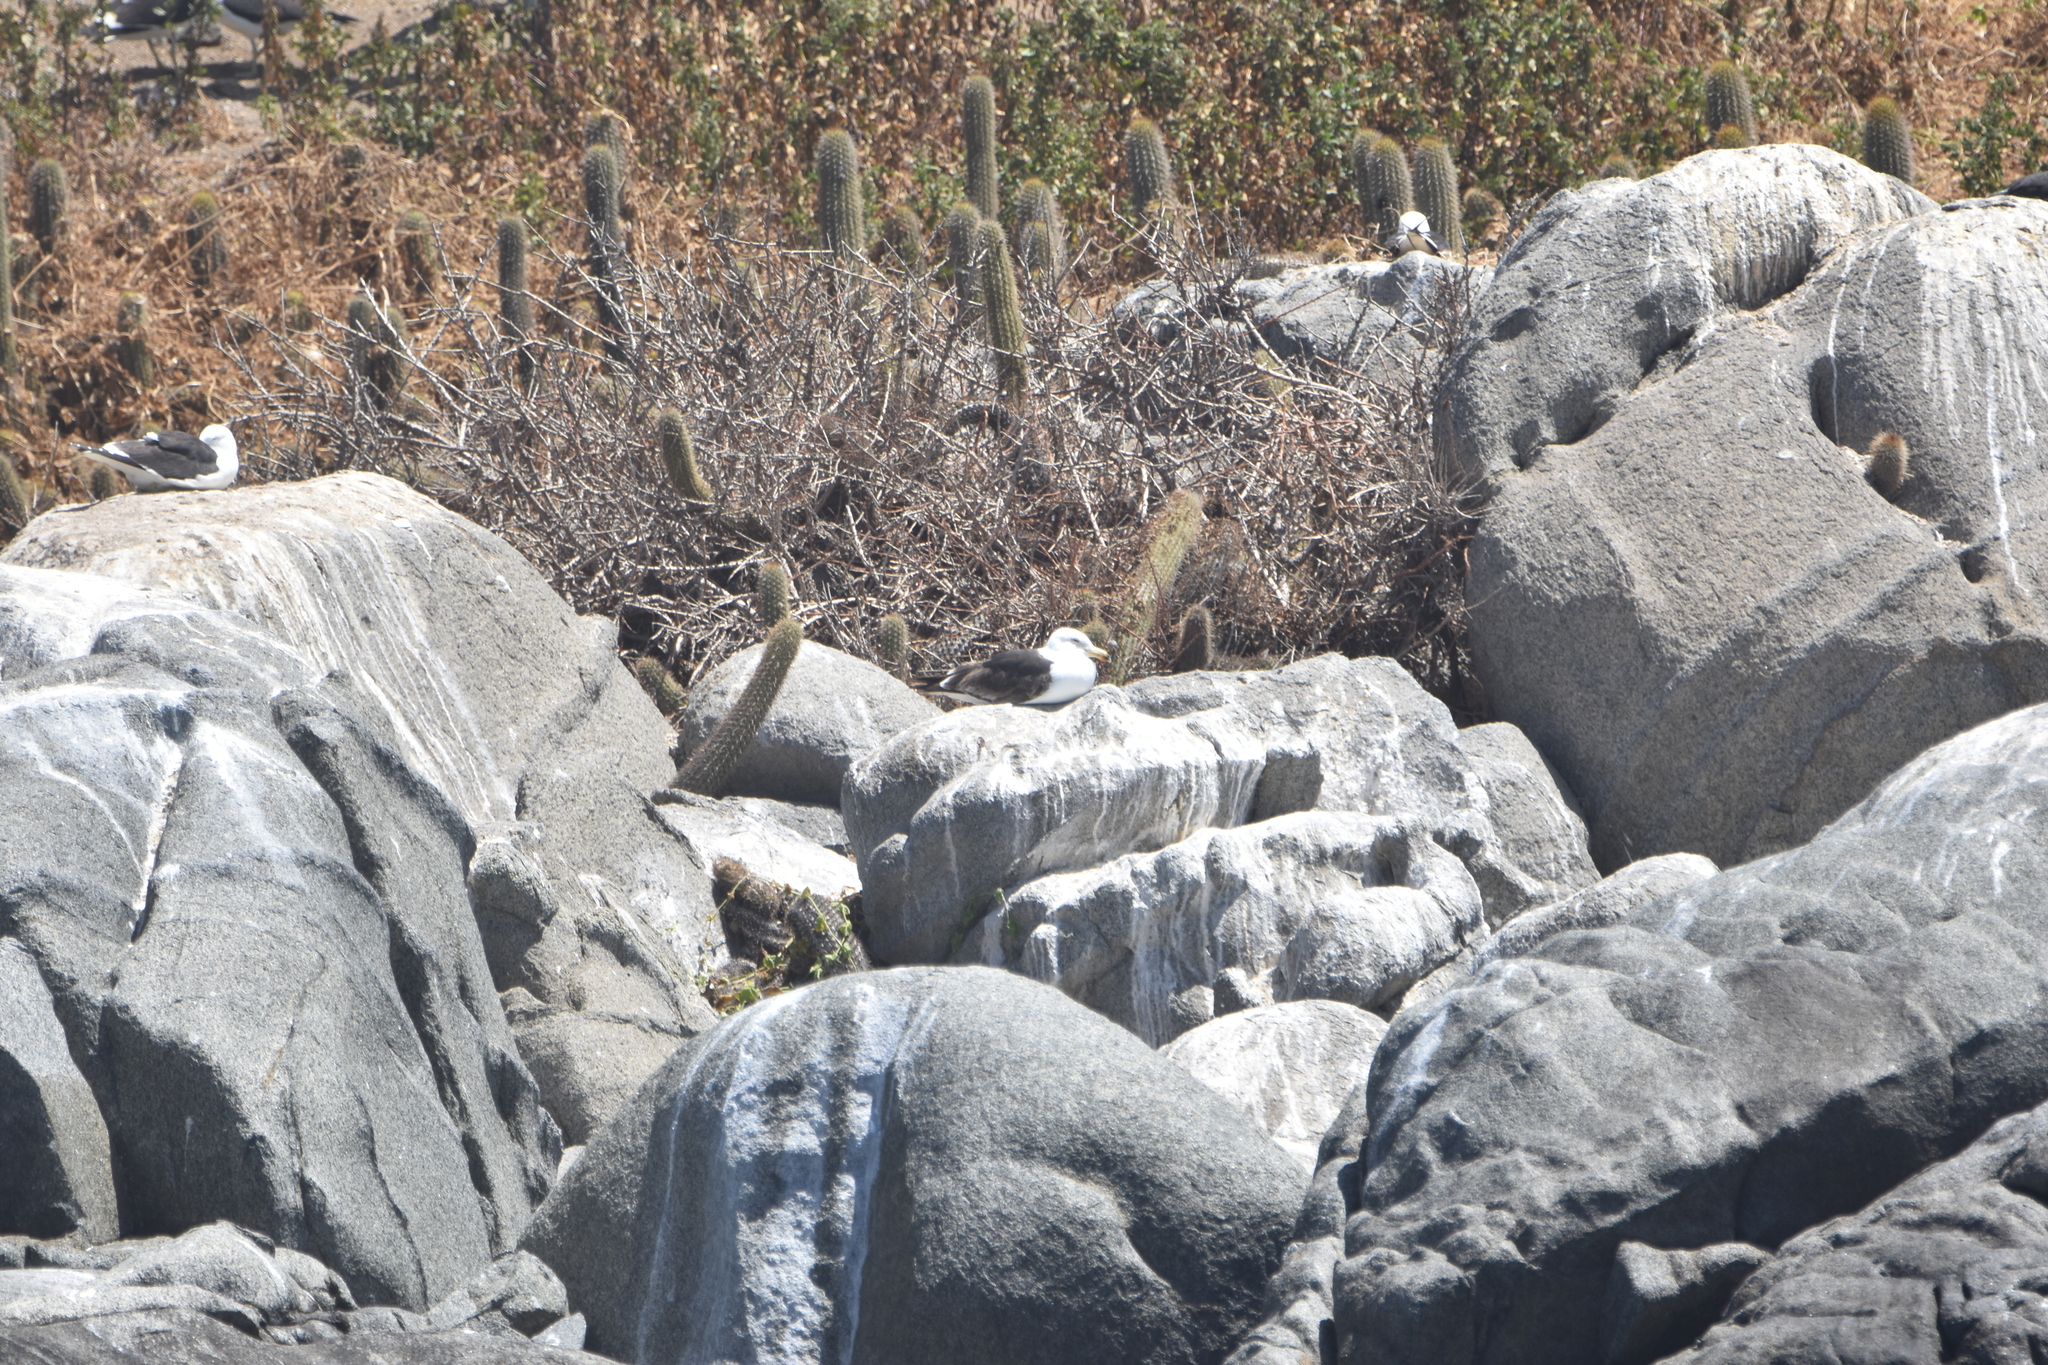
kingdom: Animalia
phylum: Chordata
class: Aves
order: Charadriiformes
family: Laridae
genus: Larus
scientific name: Larus dominicanus
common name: Kelp gull
